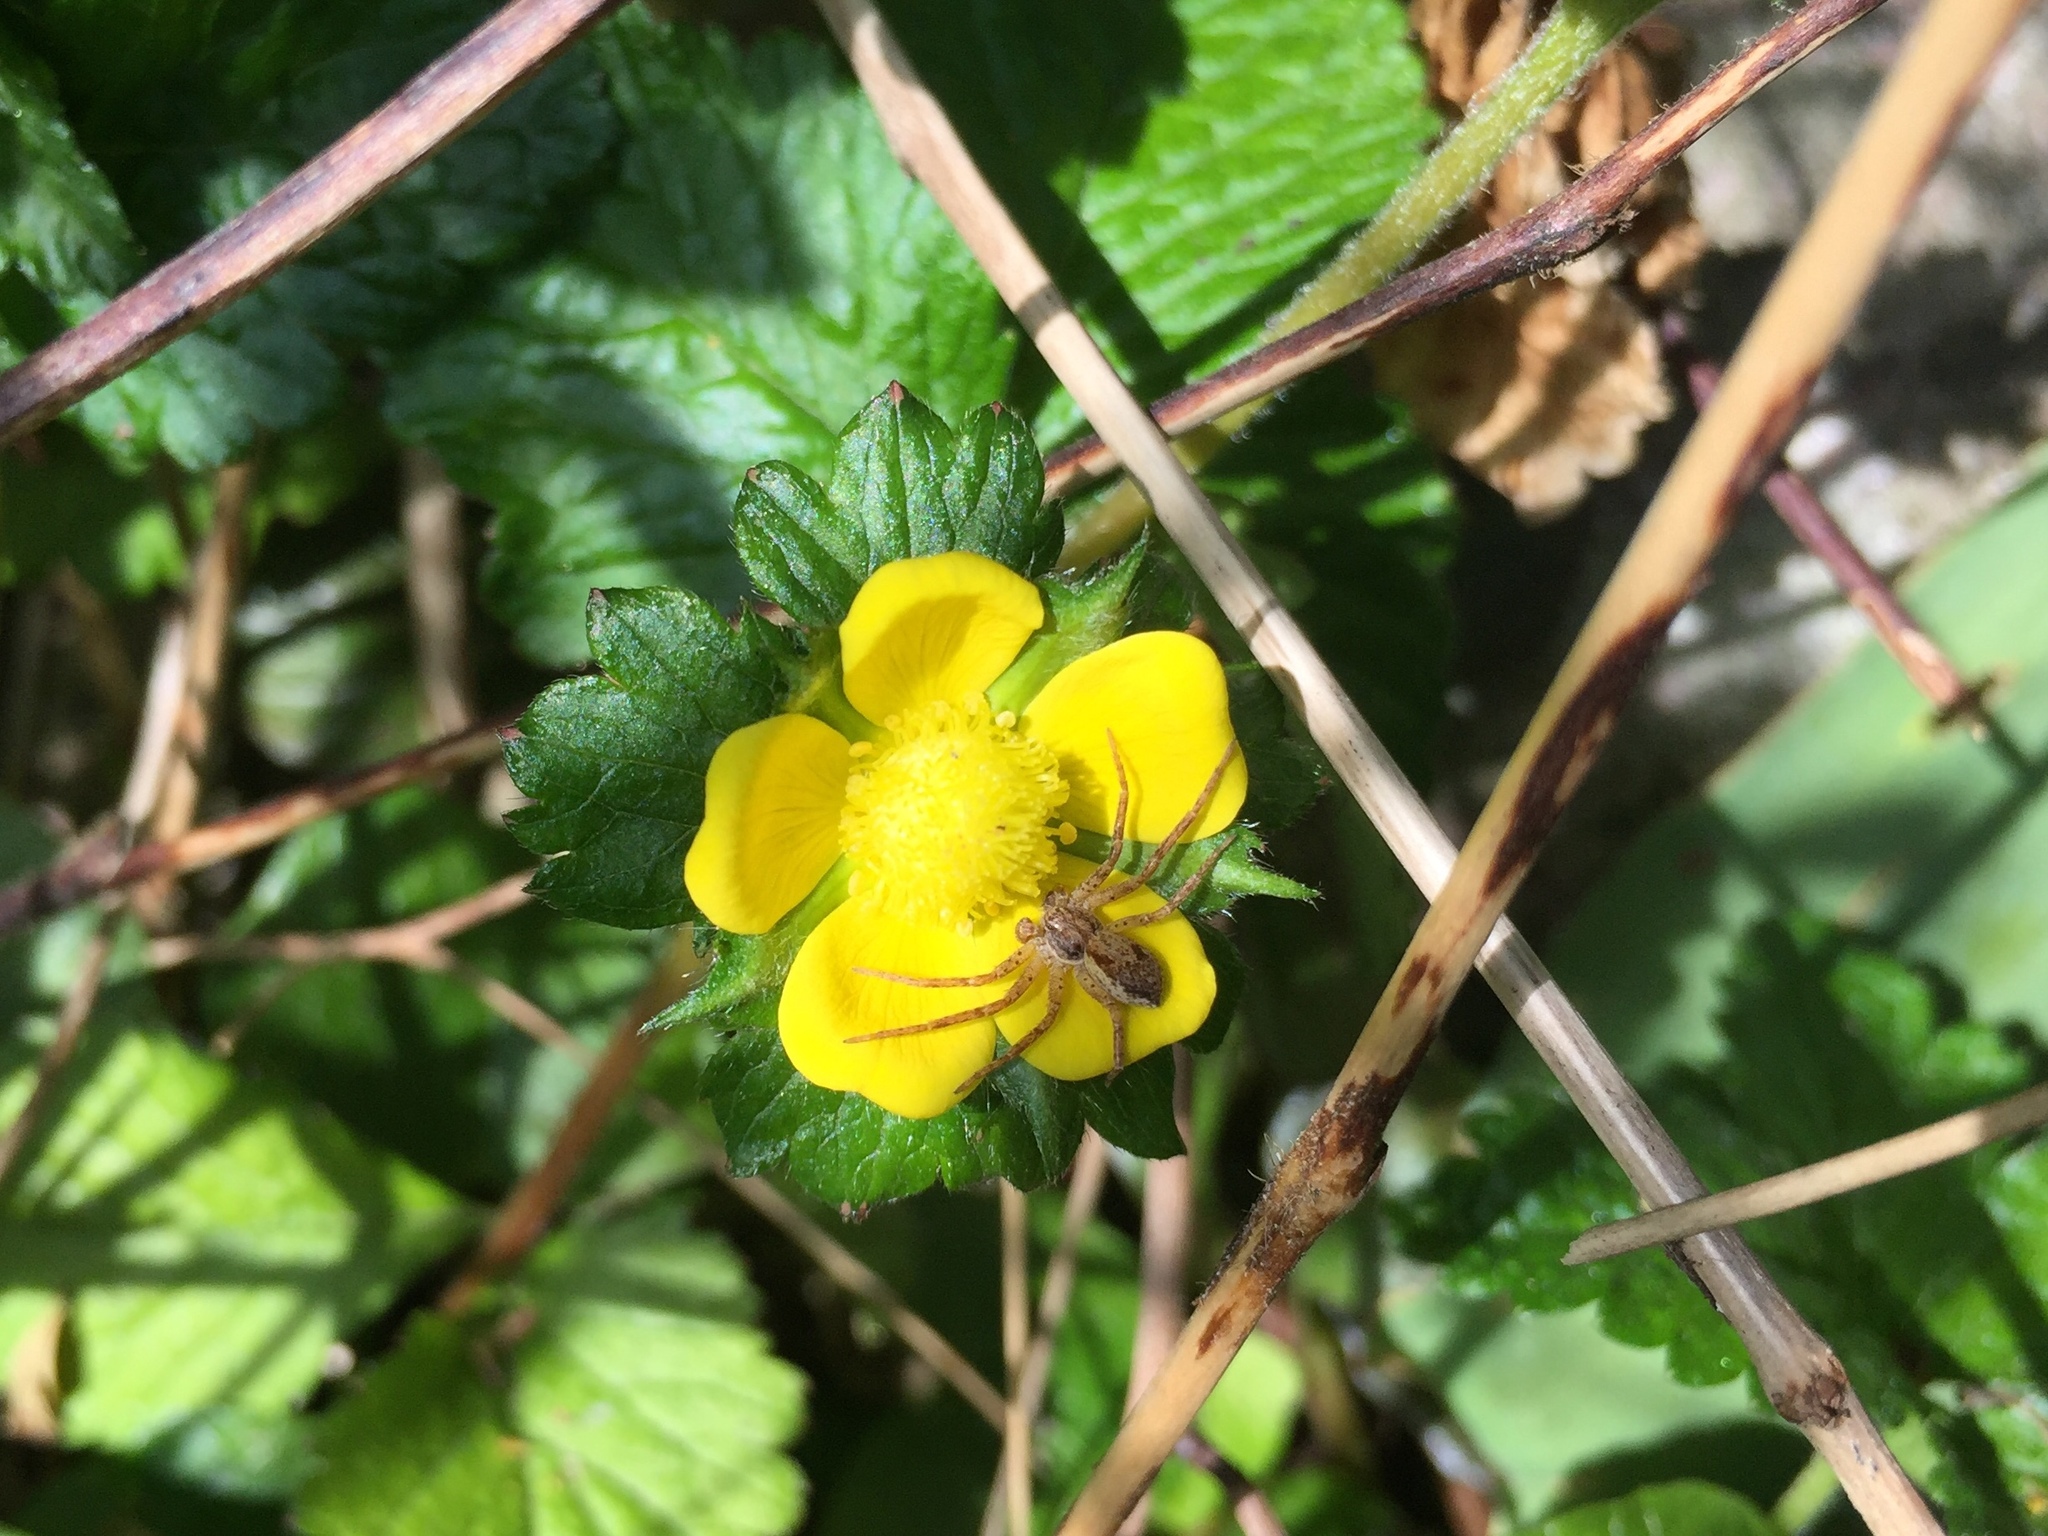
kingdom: Animalia
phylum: Arthropoda
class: Arachnida
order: Araneae
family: Philodromidae
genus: Philodromus
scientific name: Philodromus dispar
